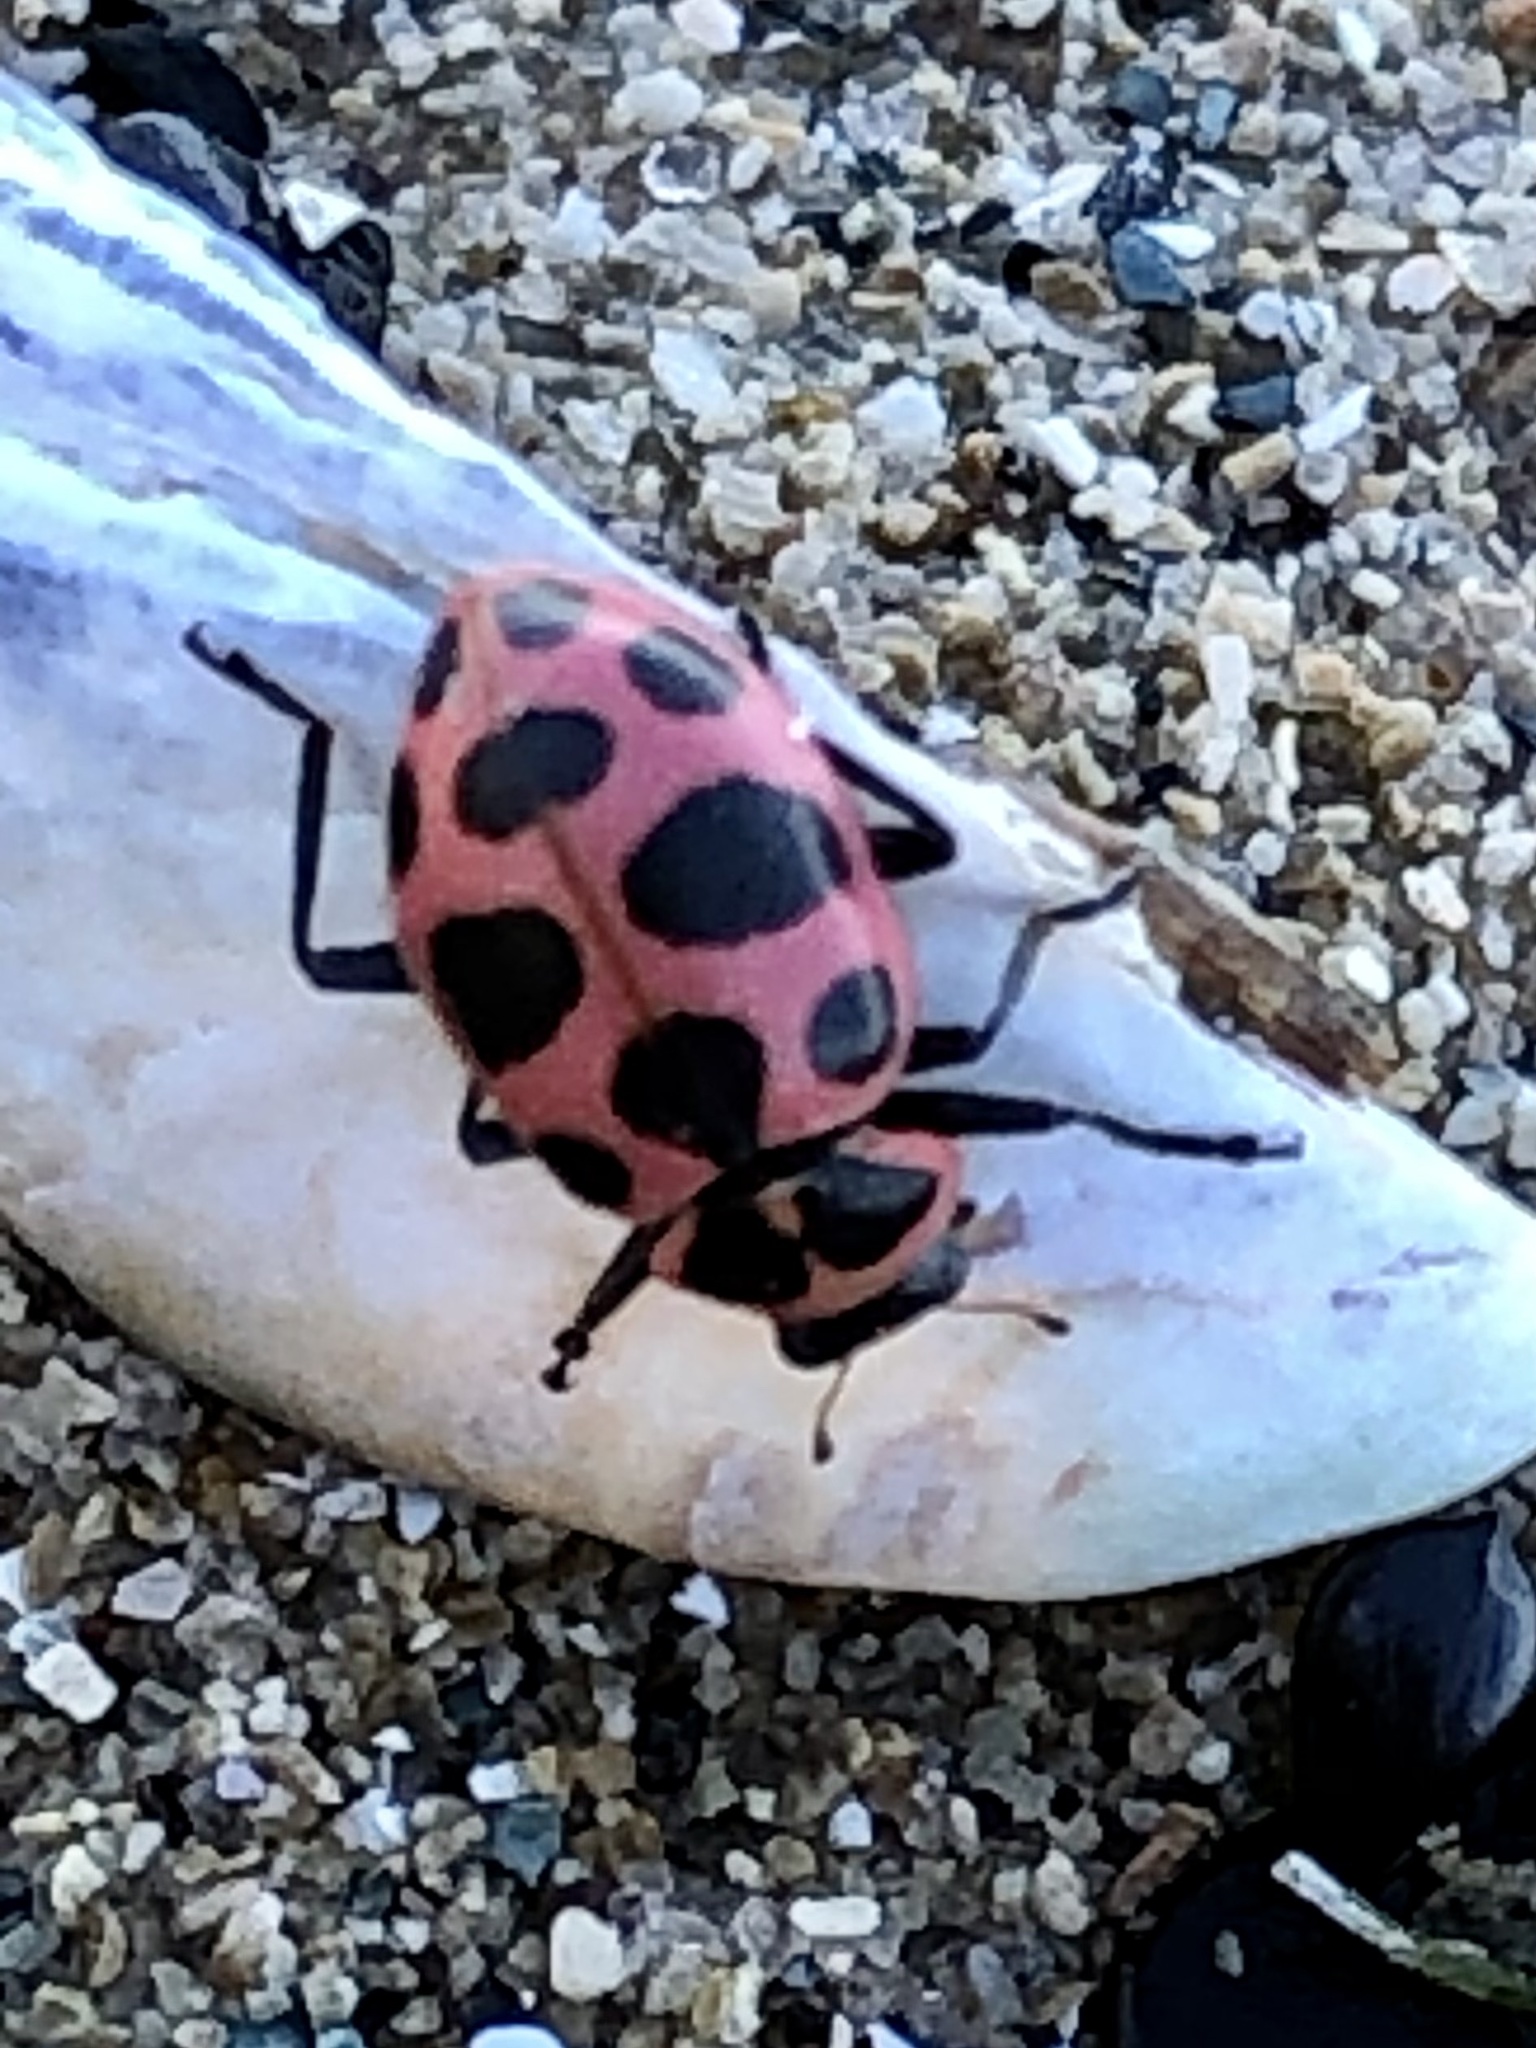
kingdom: Animalia
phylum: Arthropoda
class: Insecta
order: Coleoptera
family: Coccinellidae
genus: Coleomegilla
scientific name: Coleomegilla maculata
